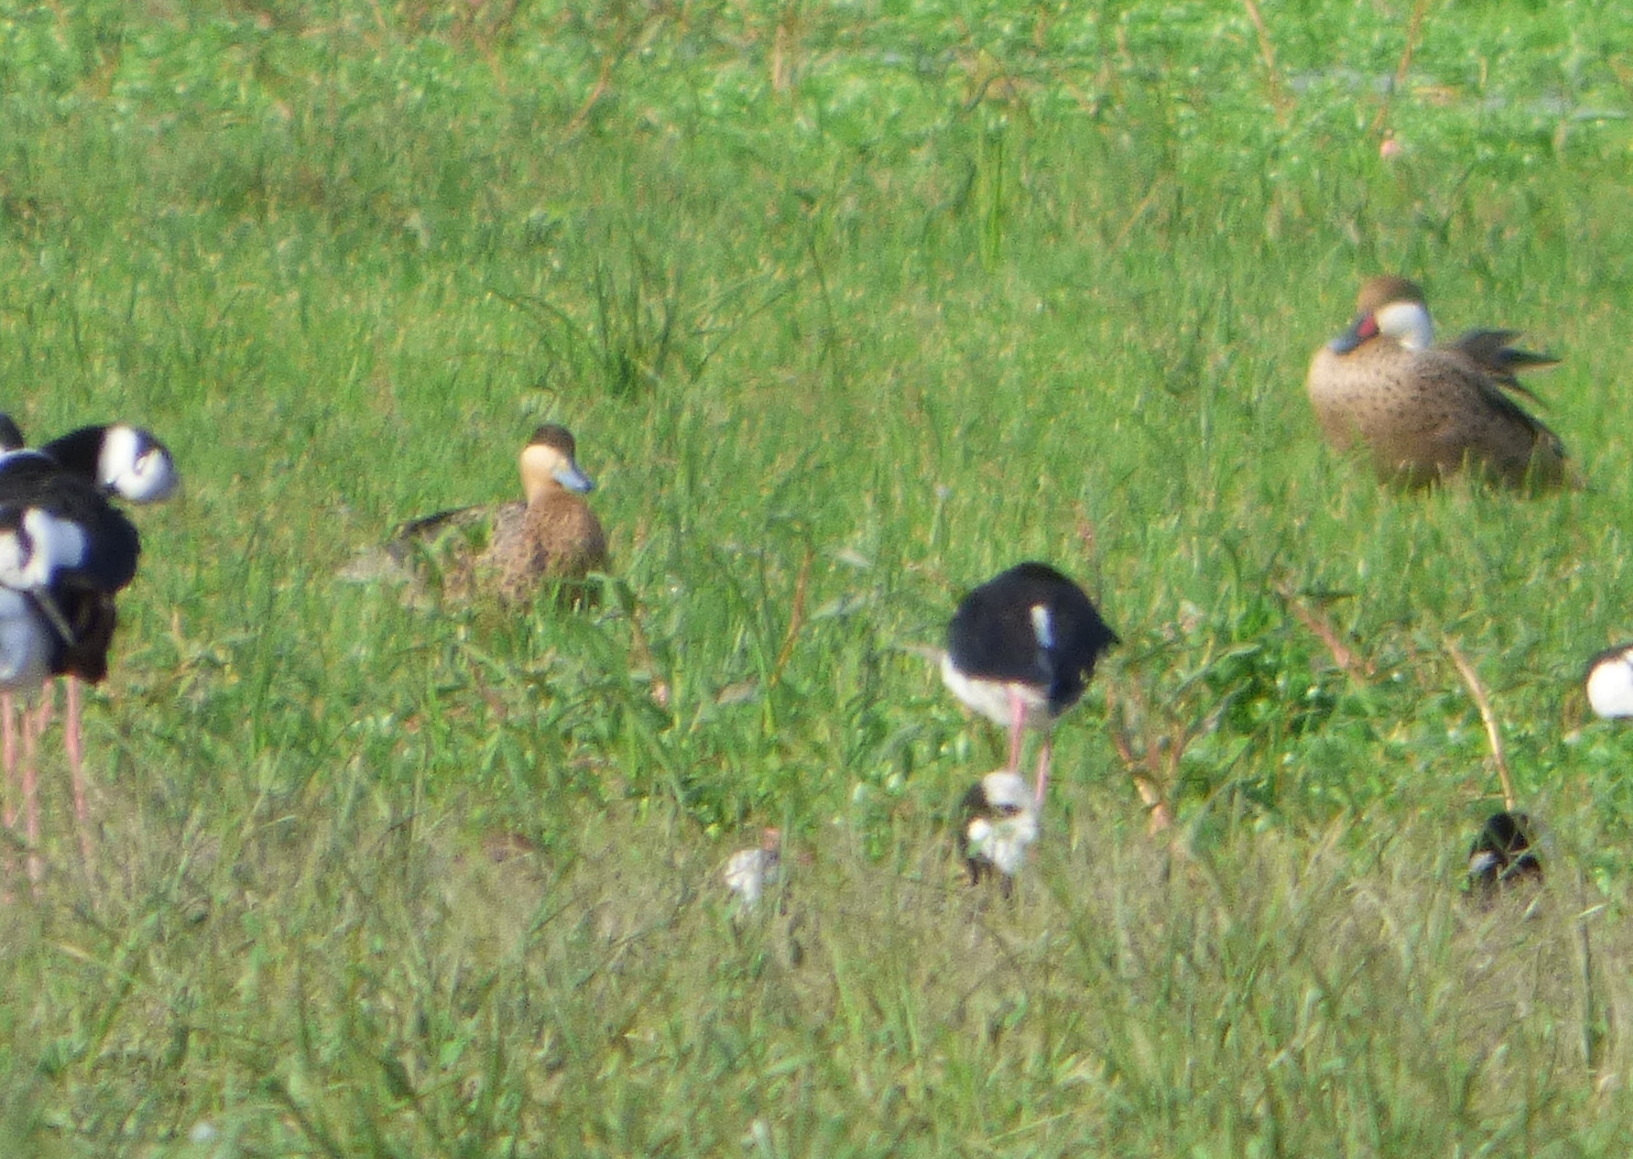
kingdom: Animalia
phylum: Chordata
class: Aves
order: Anseriformes
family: Anatidae
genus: Spatula
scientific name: Spatula versicolor
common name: Silver teal
